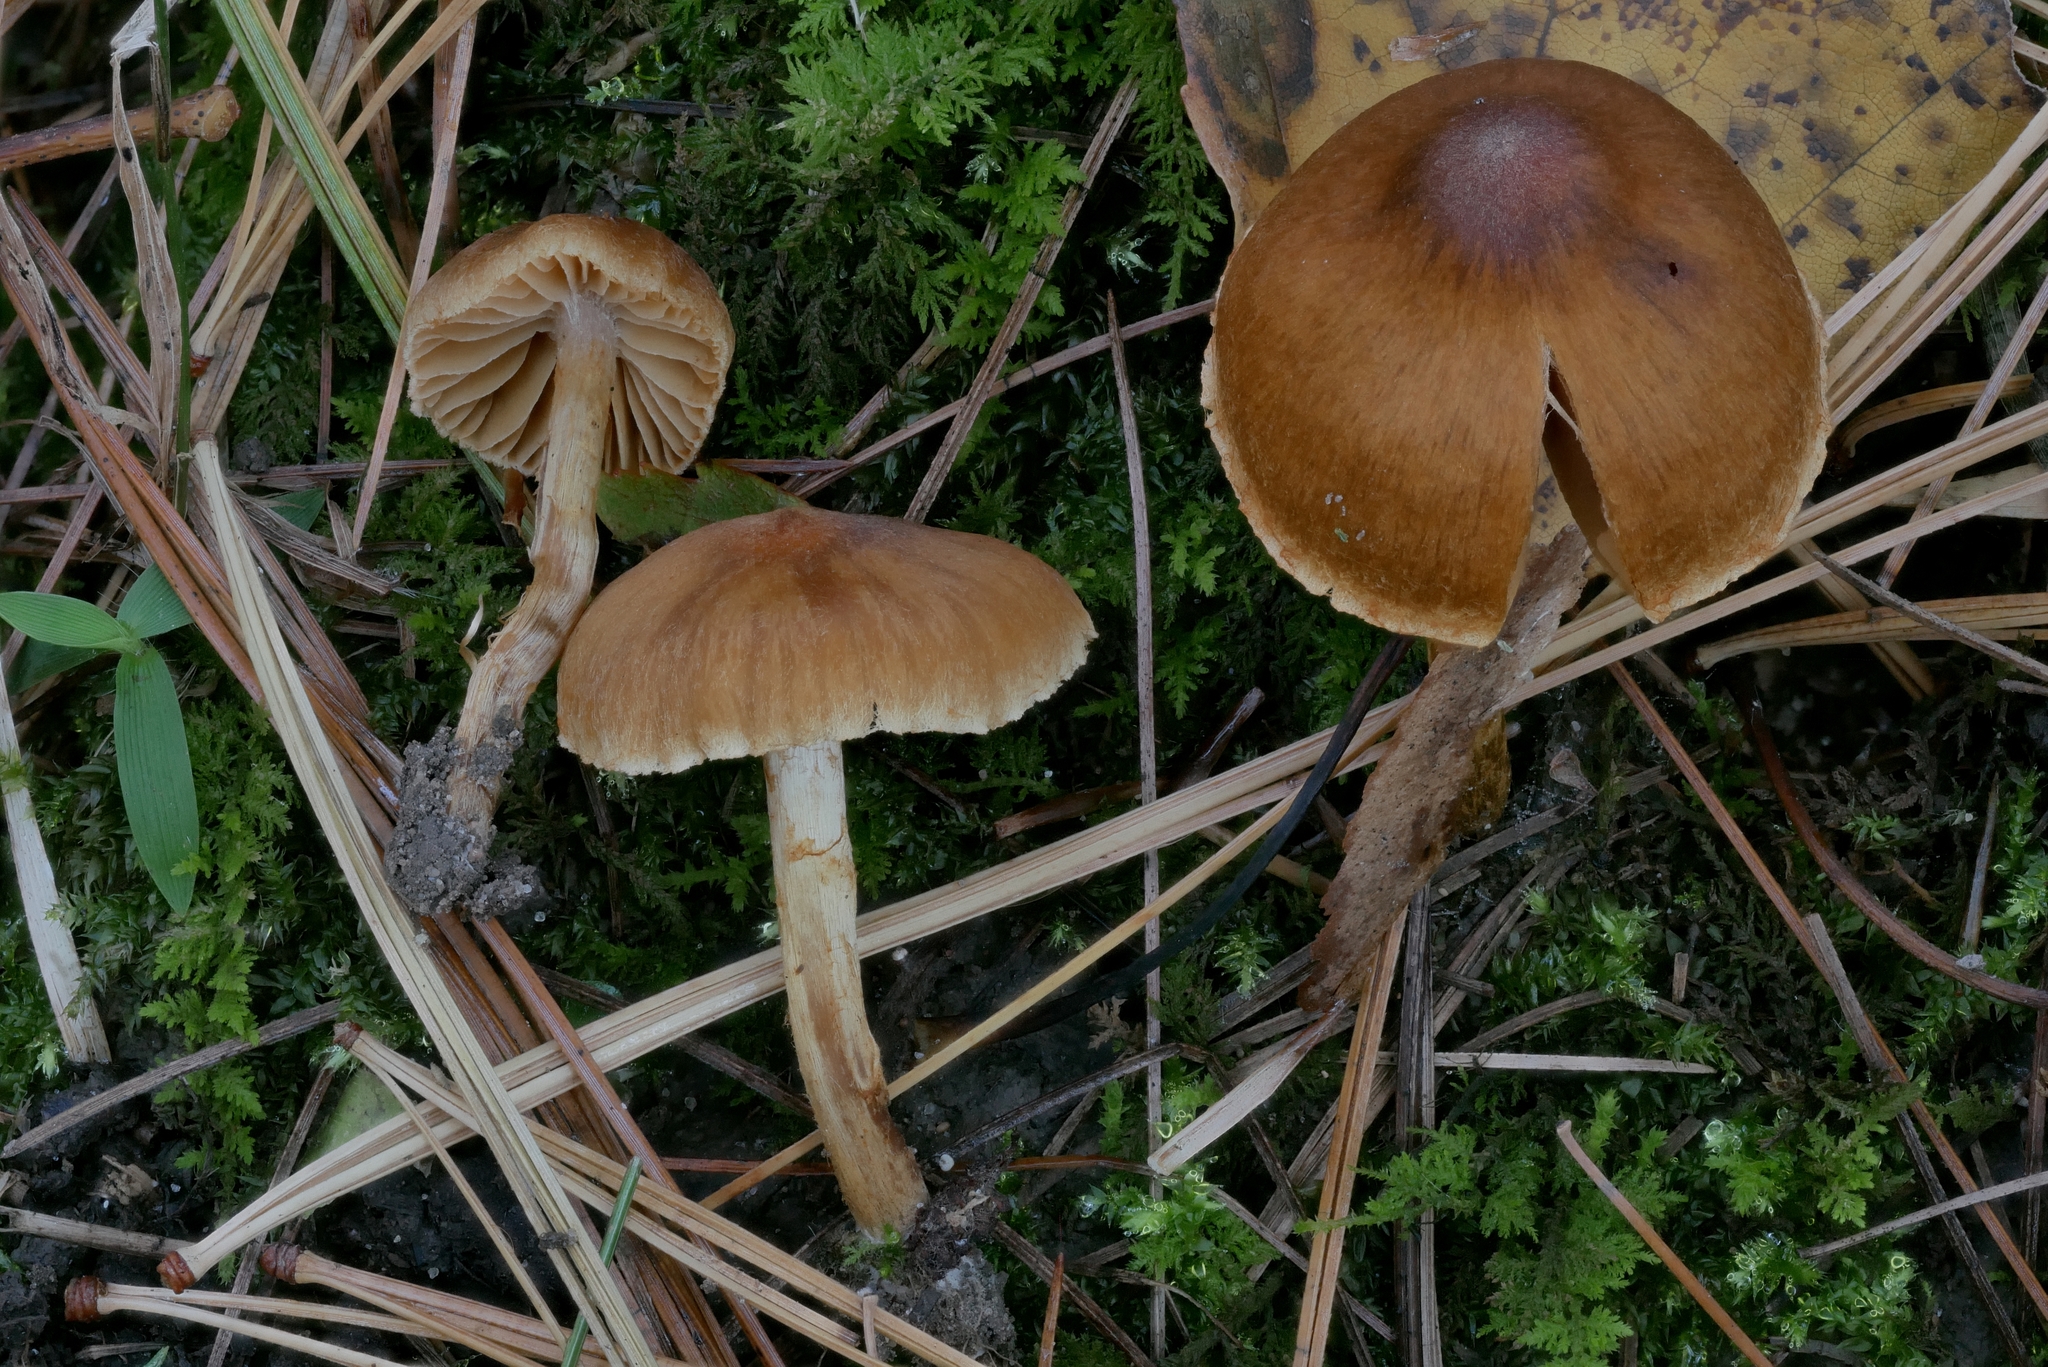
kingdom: Fungi
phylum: Basidiomycota
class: Agaricomycetes
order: Agaricales
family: Cortinariaceae
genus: Cortinarius
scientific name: Cortinarius saniosus
